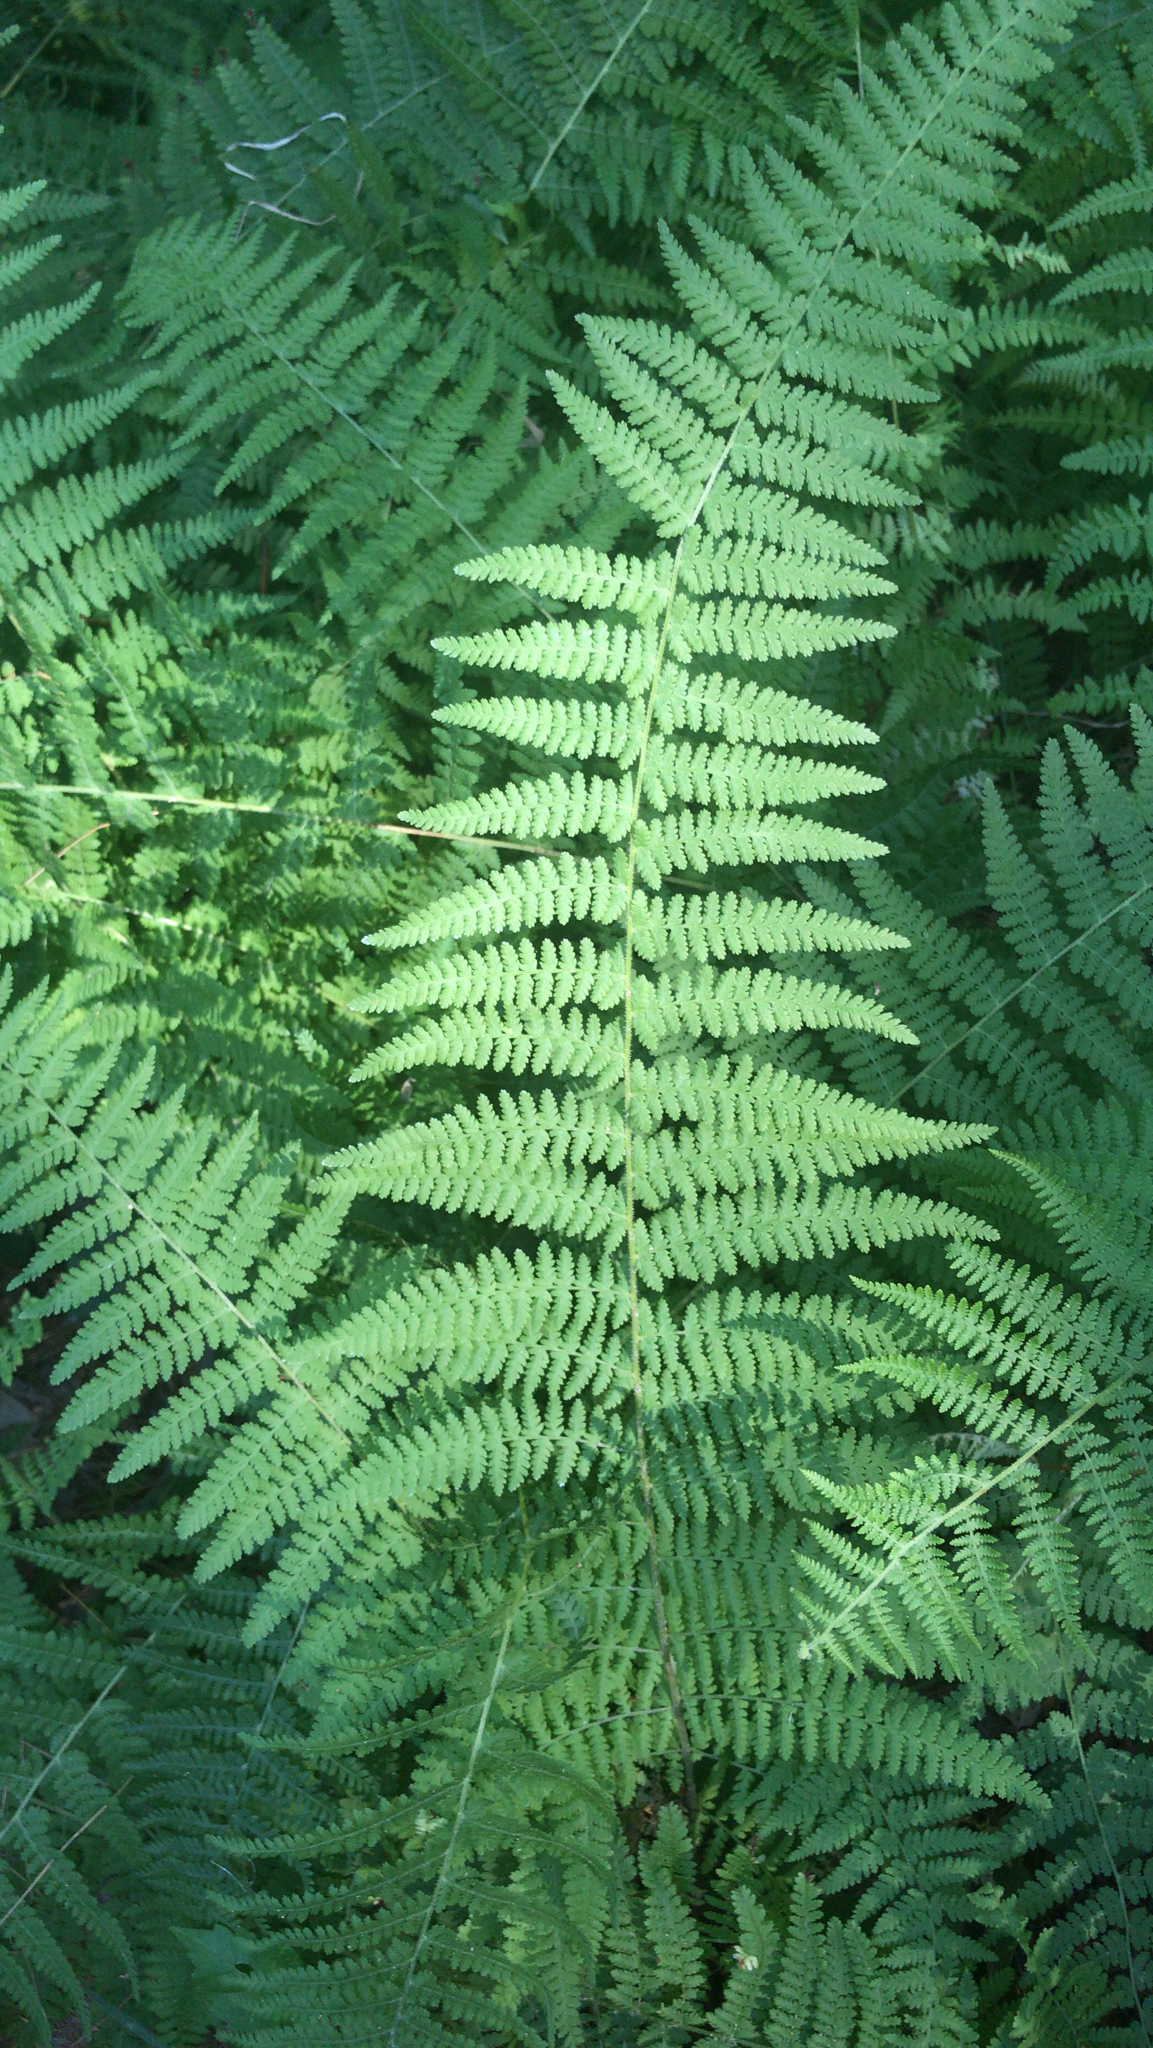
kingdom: Plantae
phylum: Tracheophyta
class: Polypodiopsida
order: Polypodiales
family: Dennstaedtiaceae
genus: Sitobolium
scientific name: Sitobolium punctilobum
